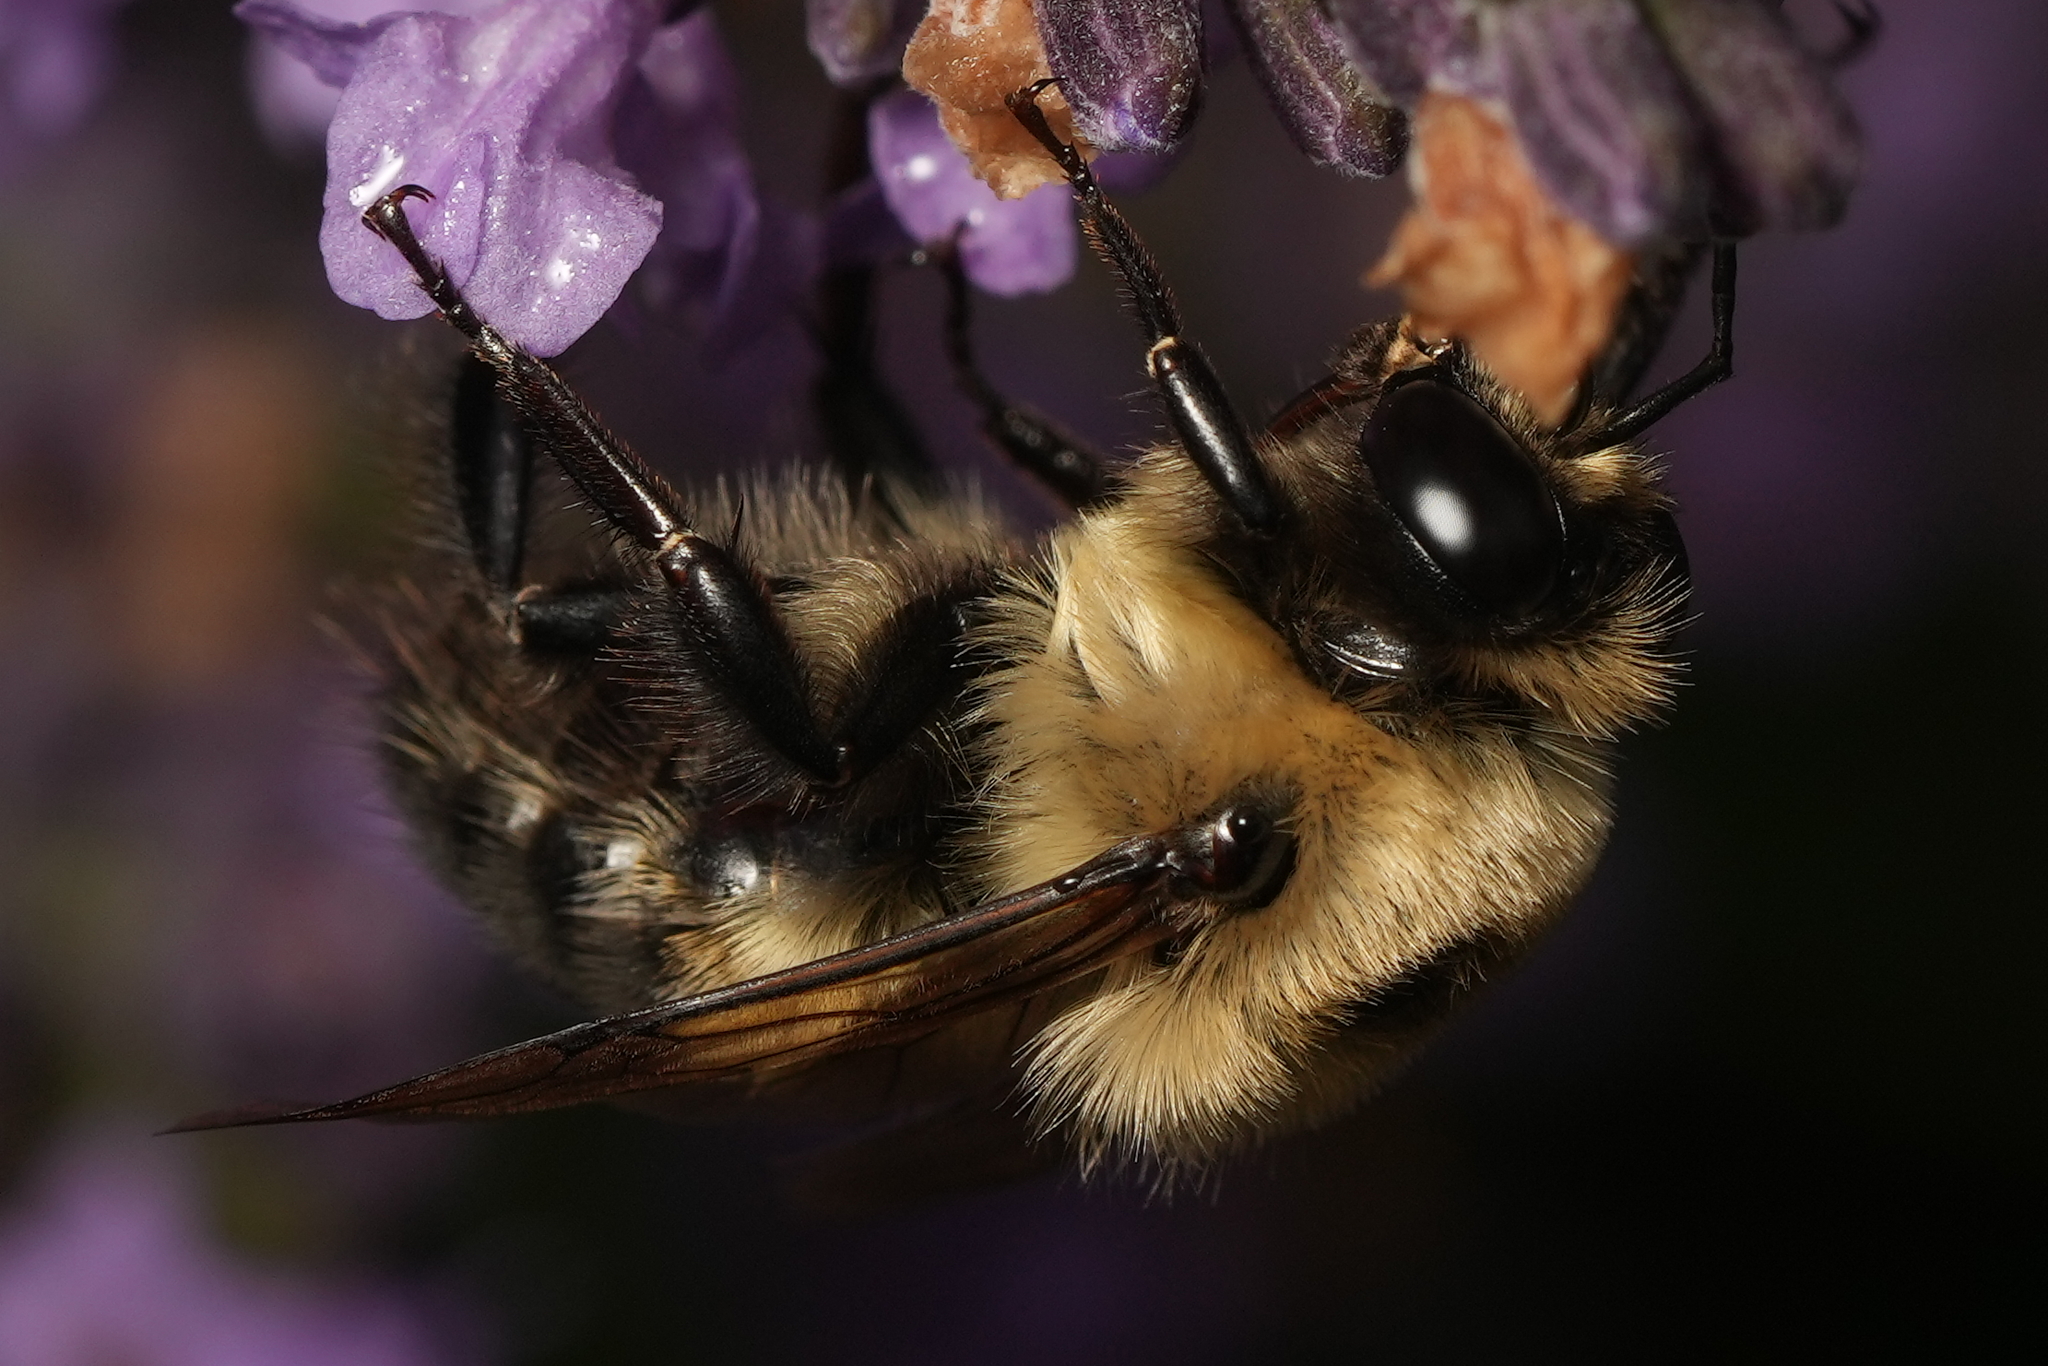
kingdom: Animalia
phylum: Arthropoda
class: Insecta
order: Hymenoptera
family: Apidae
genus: Bombus
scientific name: Bombus griseocollis
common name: Brown-belted bumble bee
